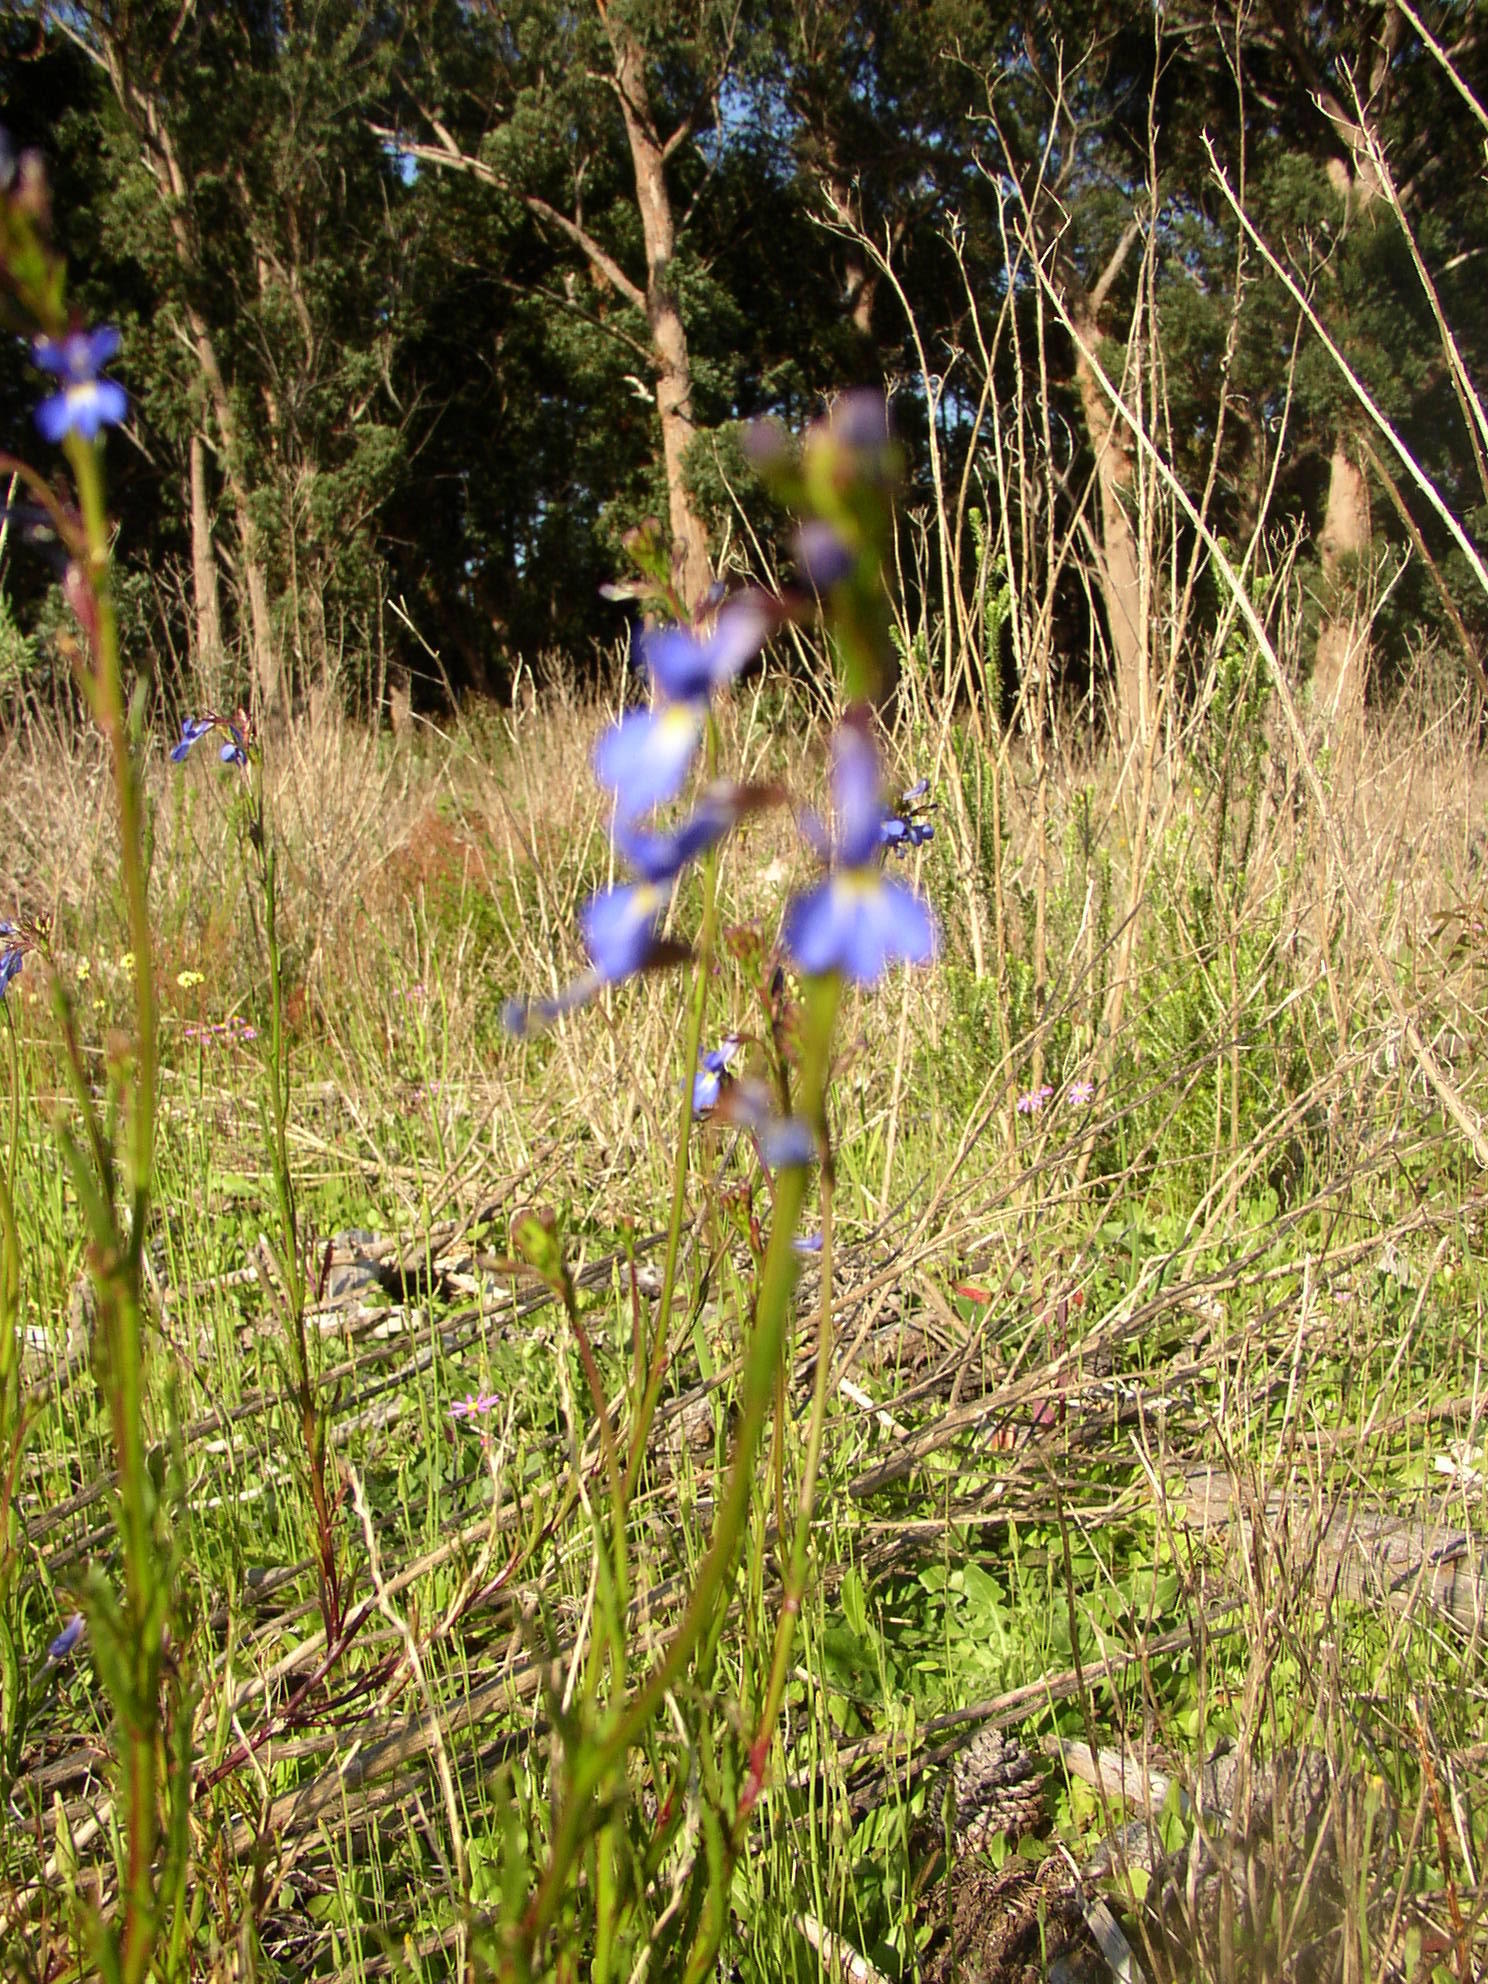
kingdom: Plantae
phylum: Tracheophyta
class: Magnoliopsida
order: Asterales
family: Campanulaceae
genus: Lobelia
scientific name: Lobelia comosa
